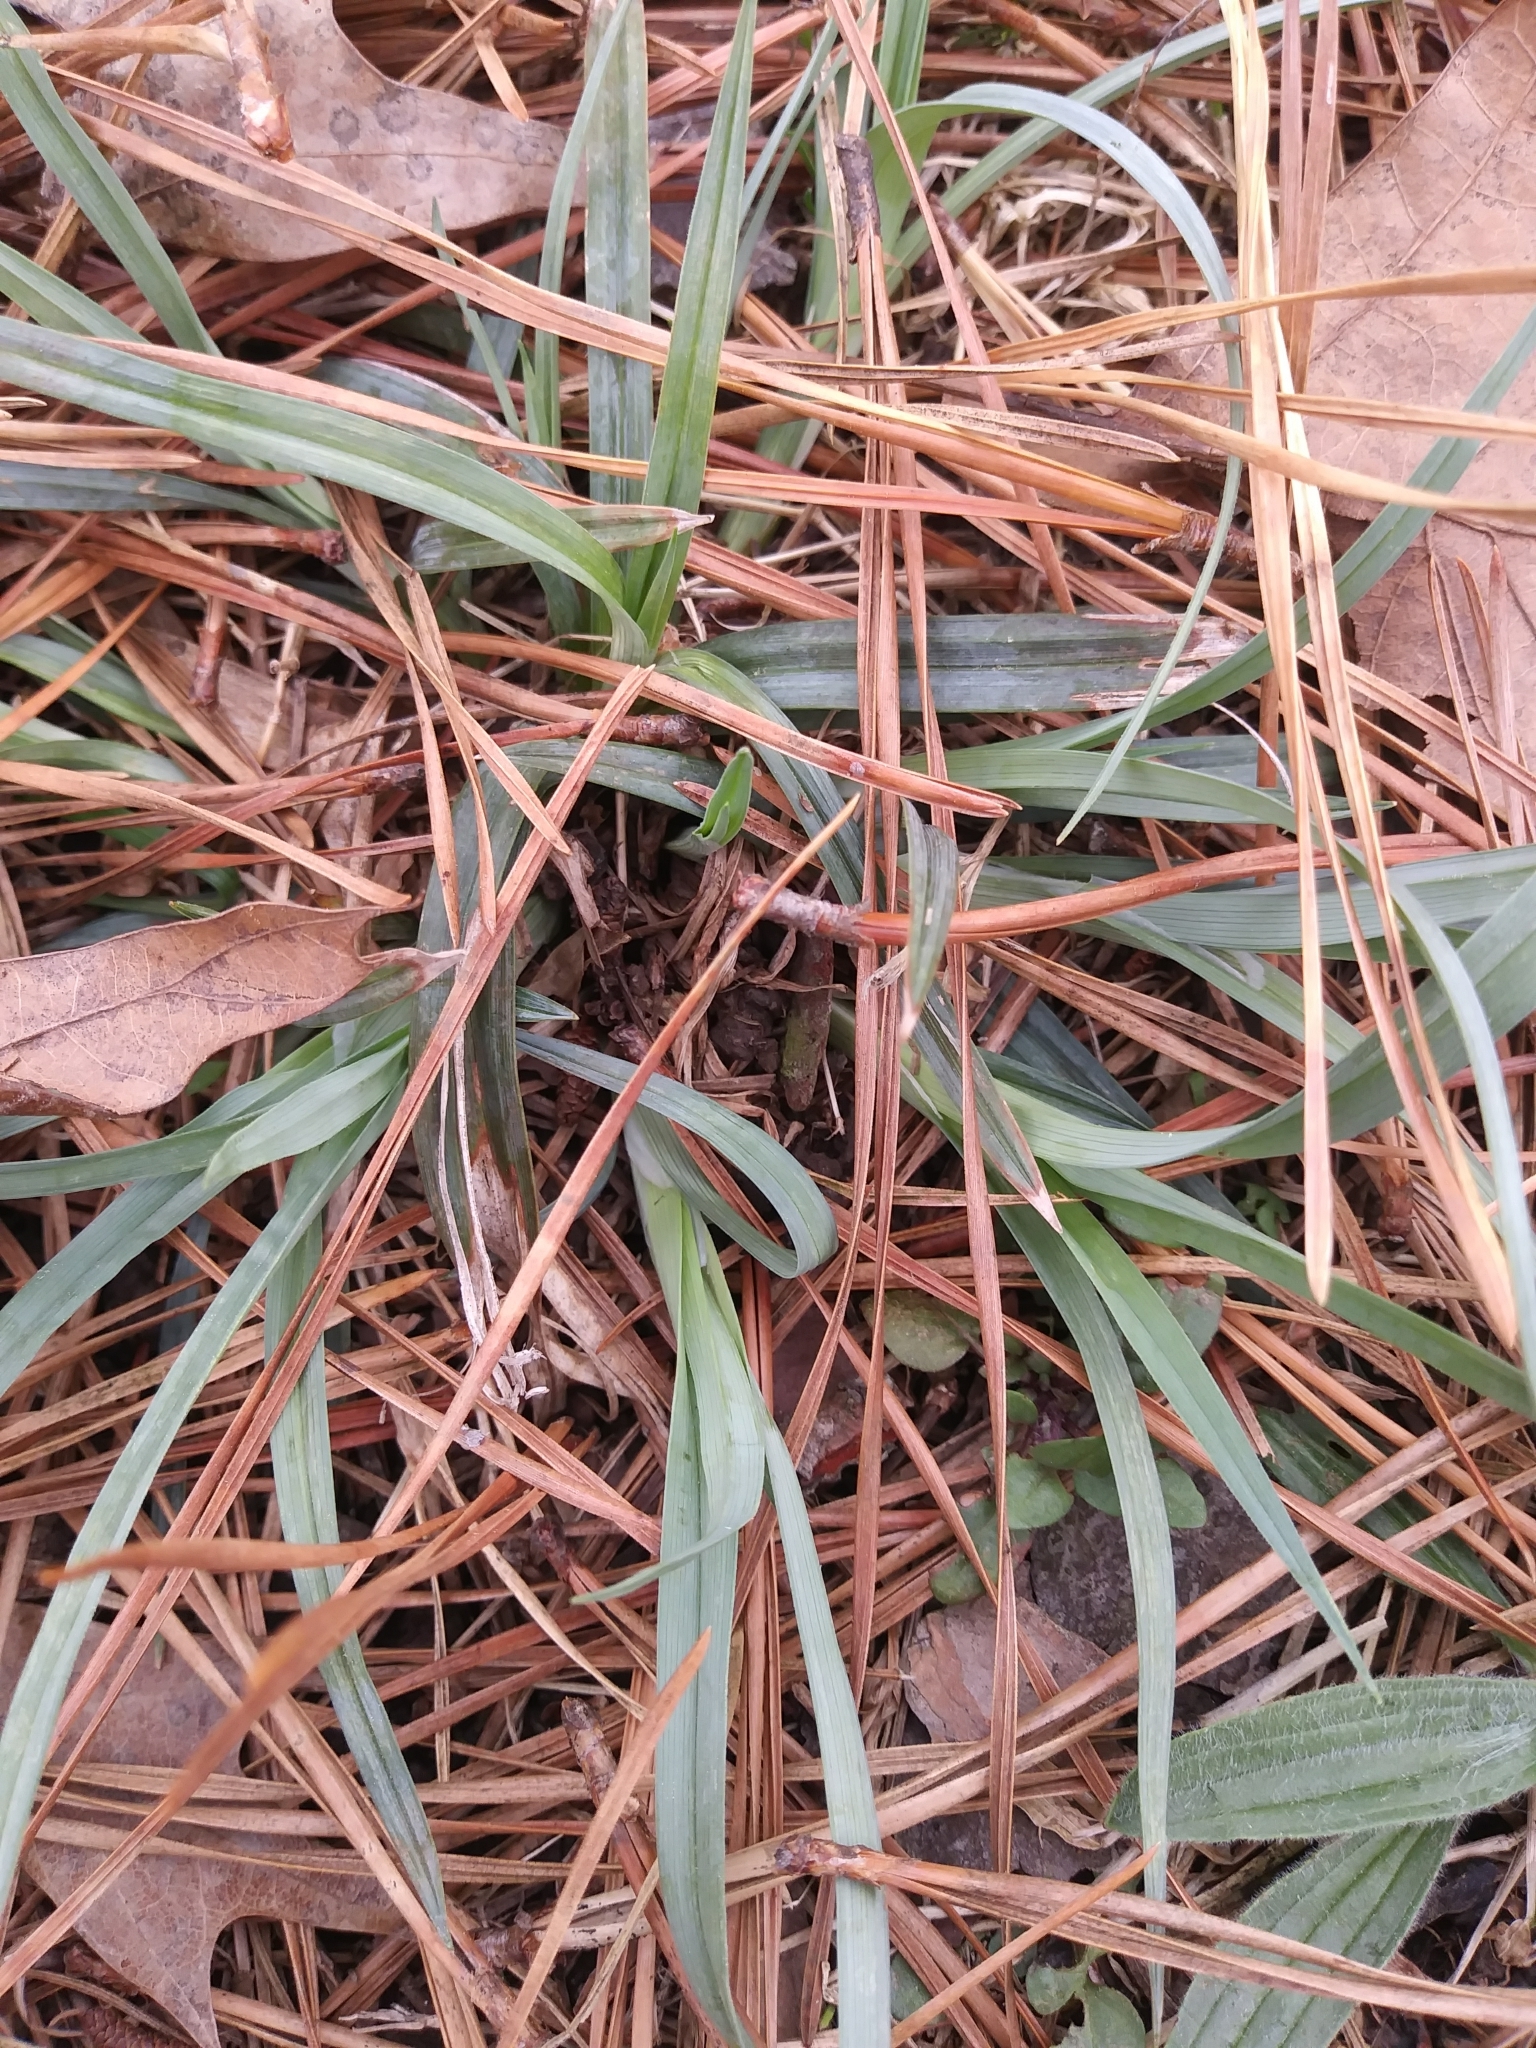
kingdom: Plantae
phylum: Tracheophyta
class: Liliopsida
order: Poales
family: Cyperaceae
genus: Carex
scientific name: Carex glaucodea
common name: Blue sedge
